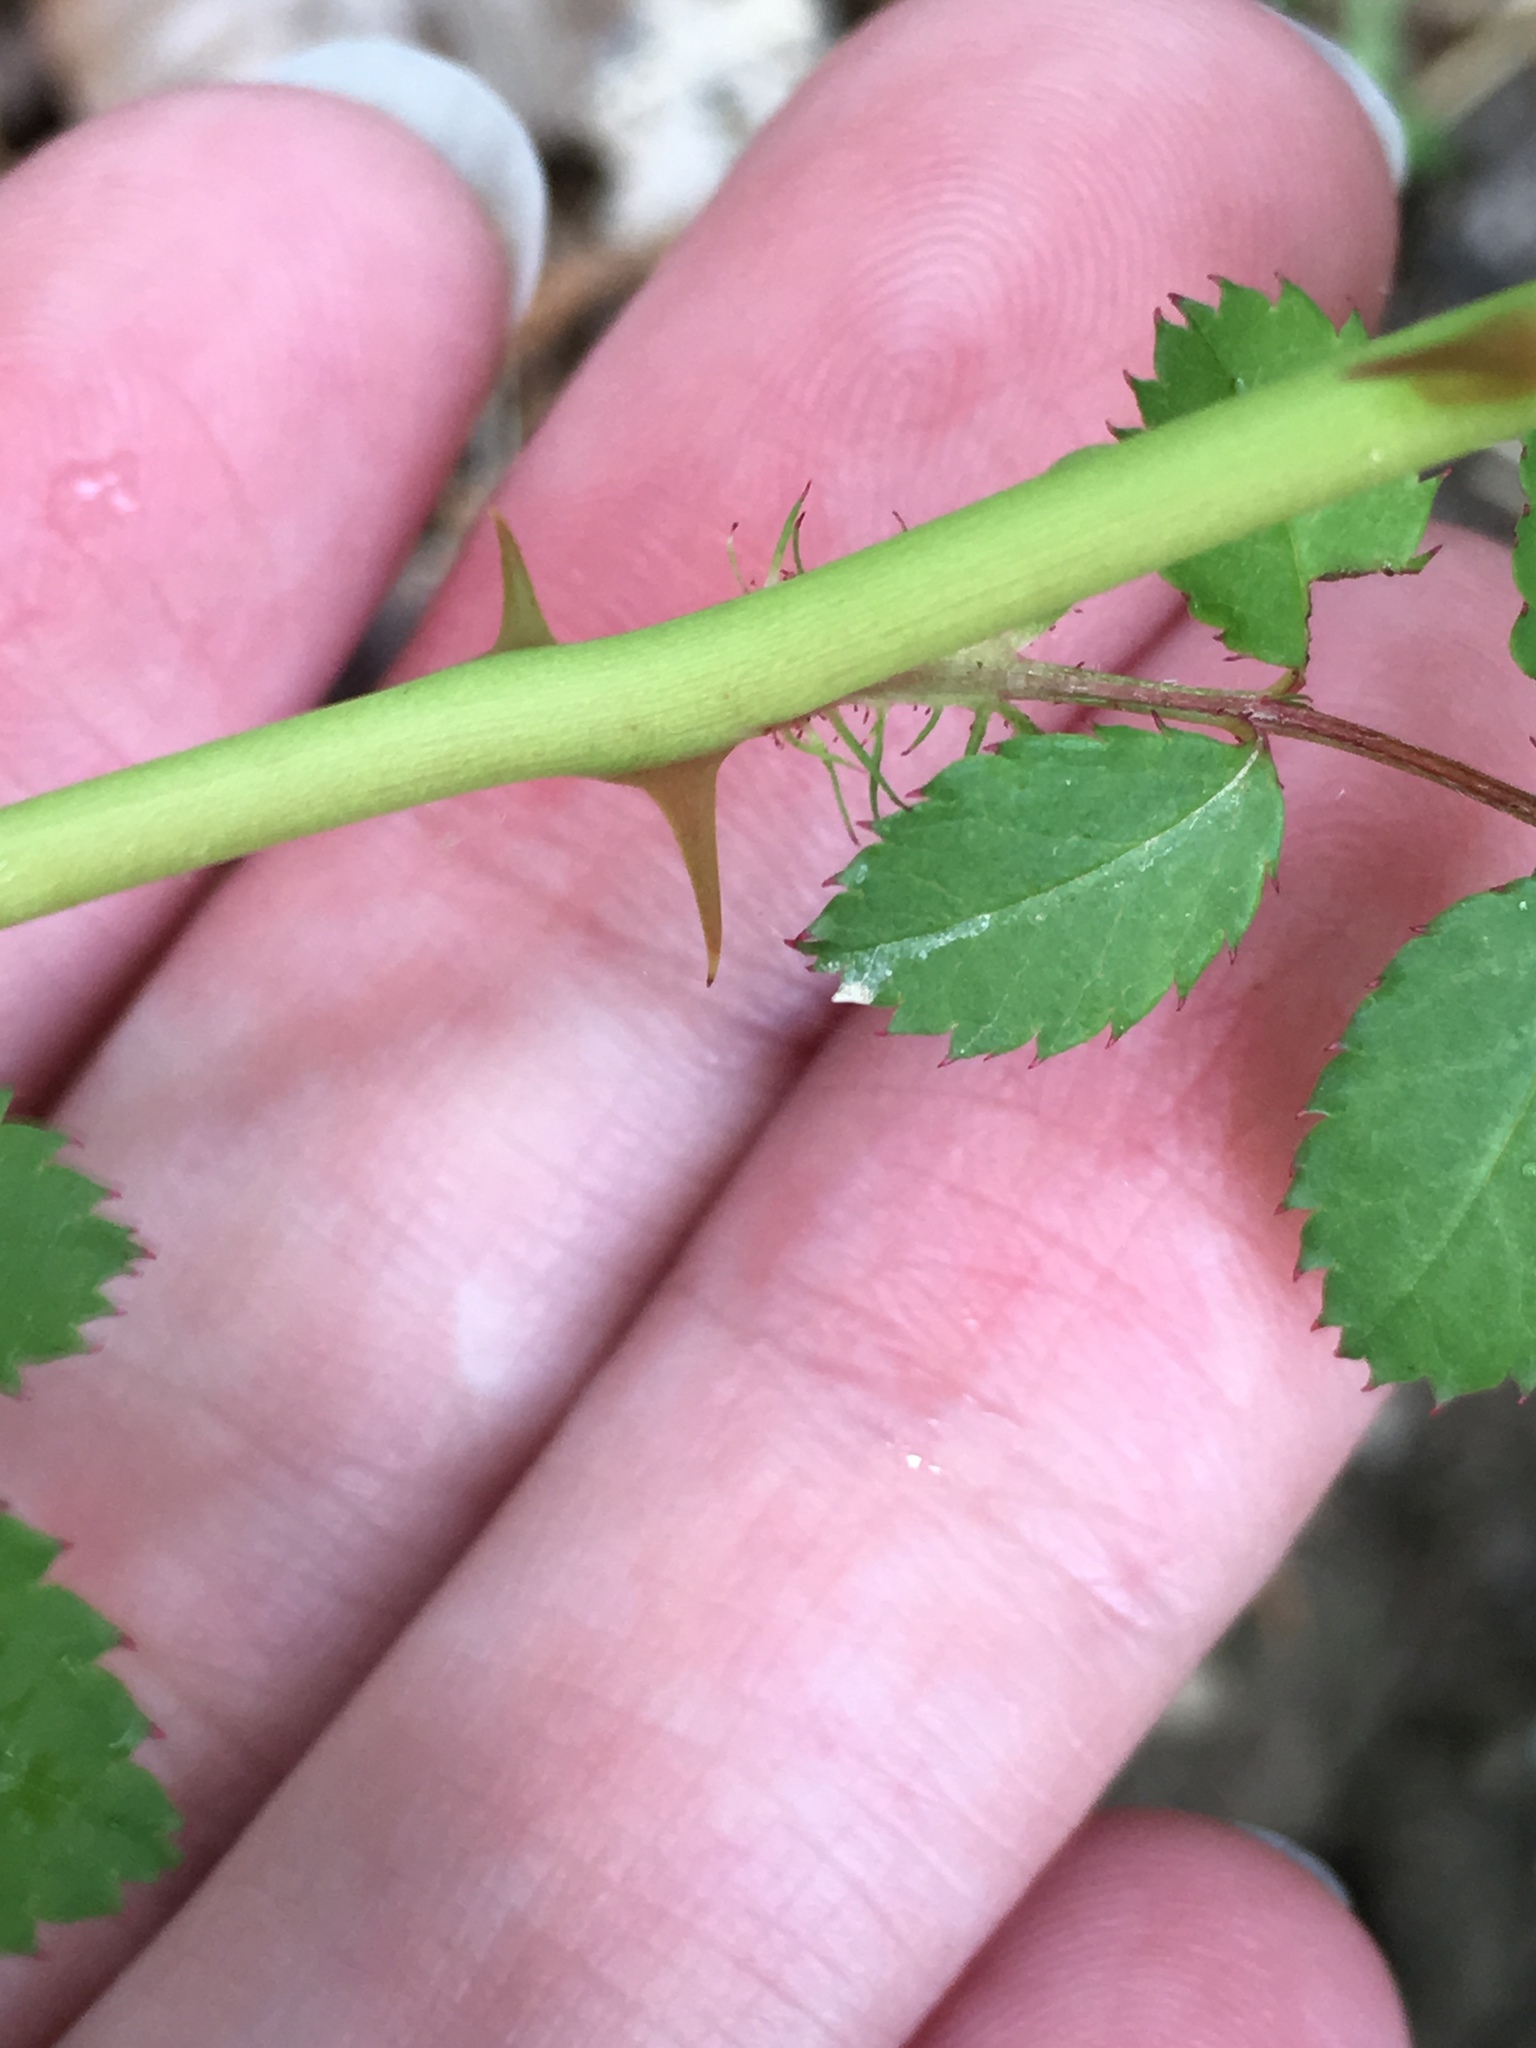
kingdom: Plantae
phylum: Tracheophyta
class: Magnoliopsida
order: Rosales
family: Rosaceae
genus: Rosa
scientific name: Rosa multiflora
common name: Multiflora rose
